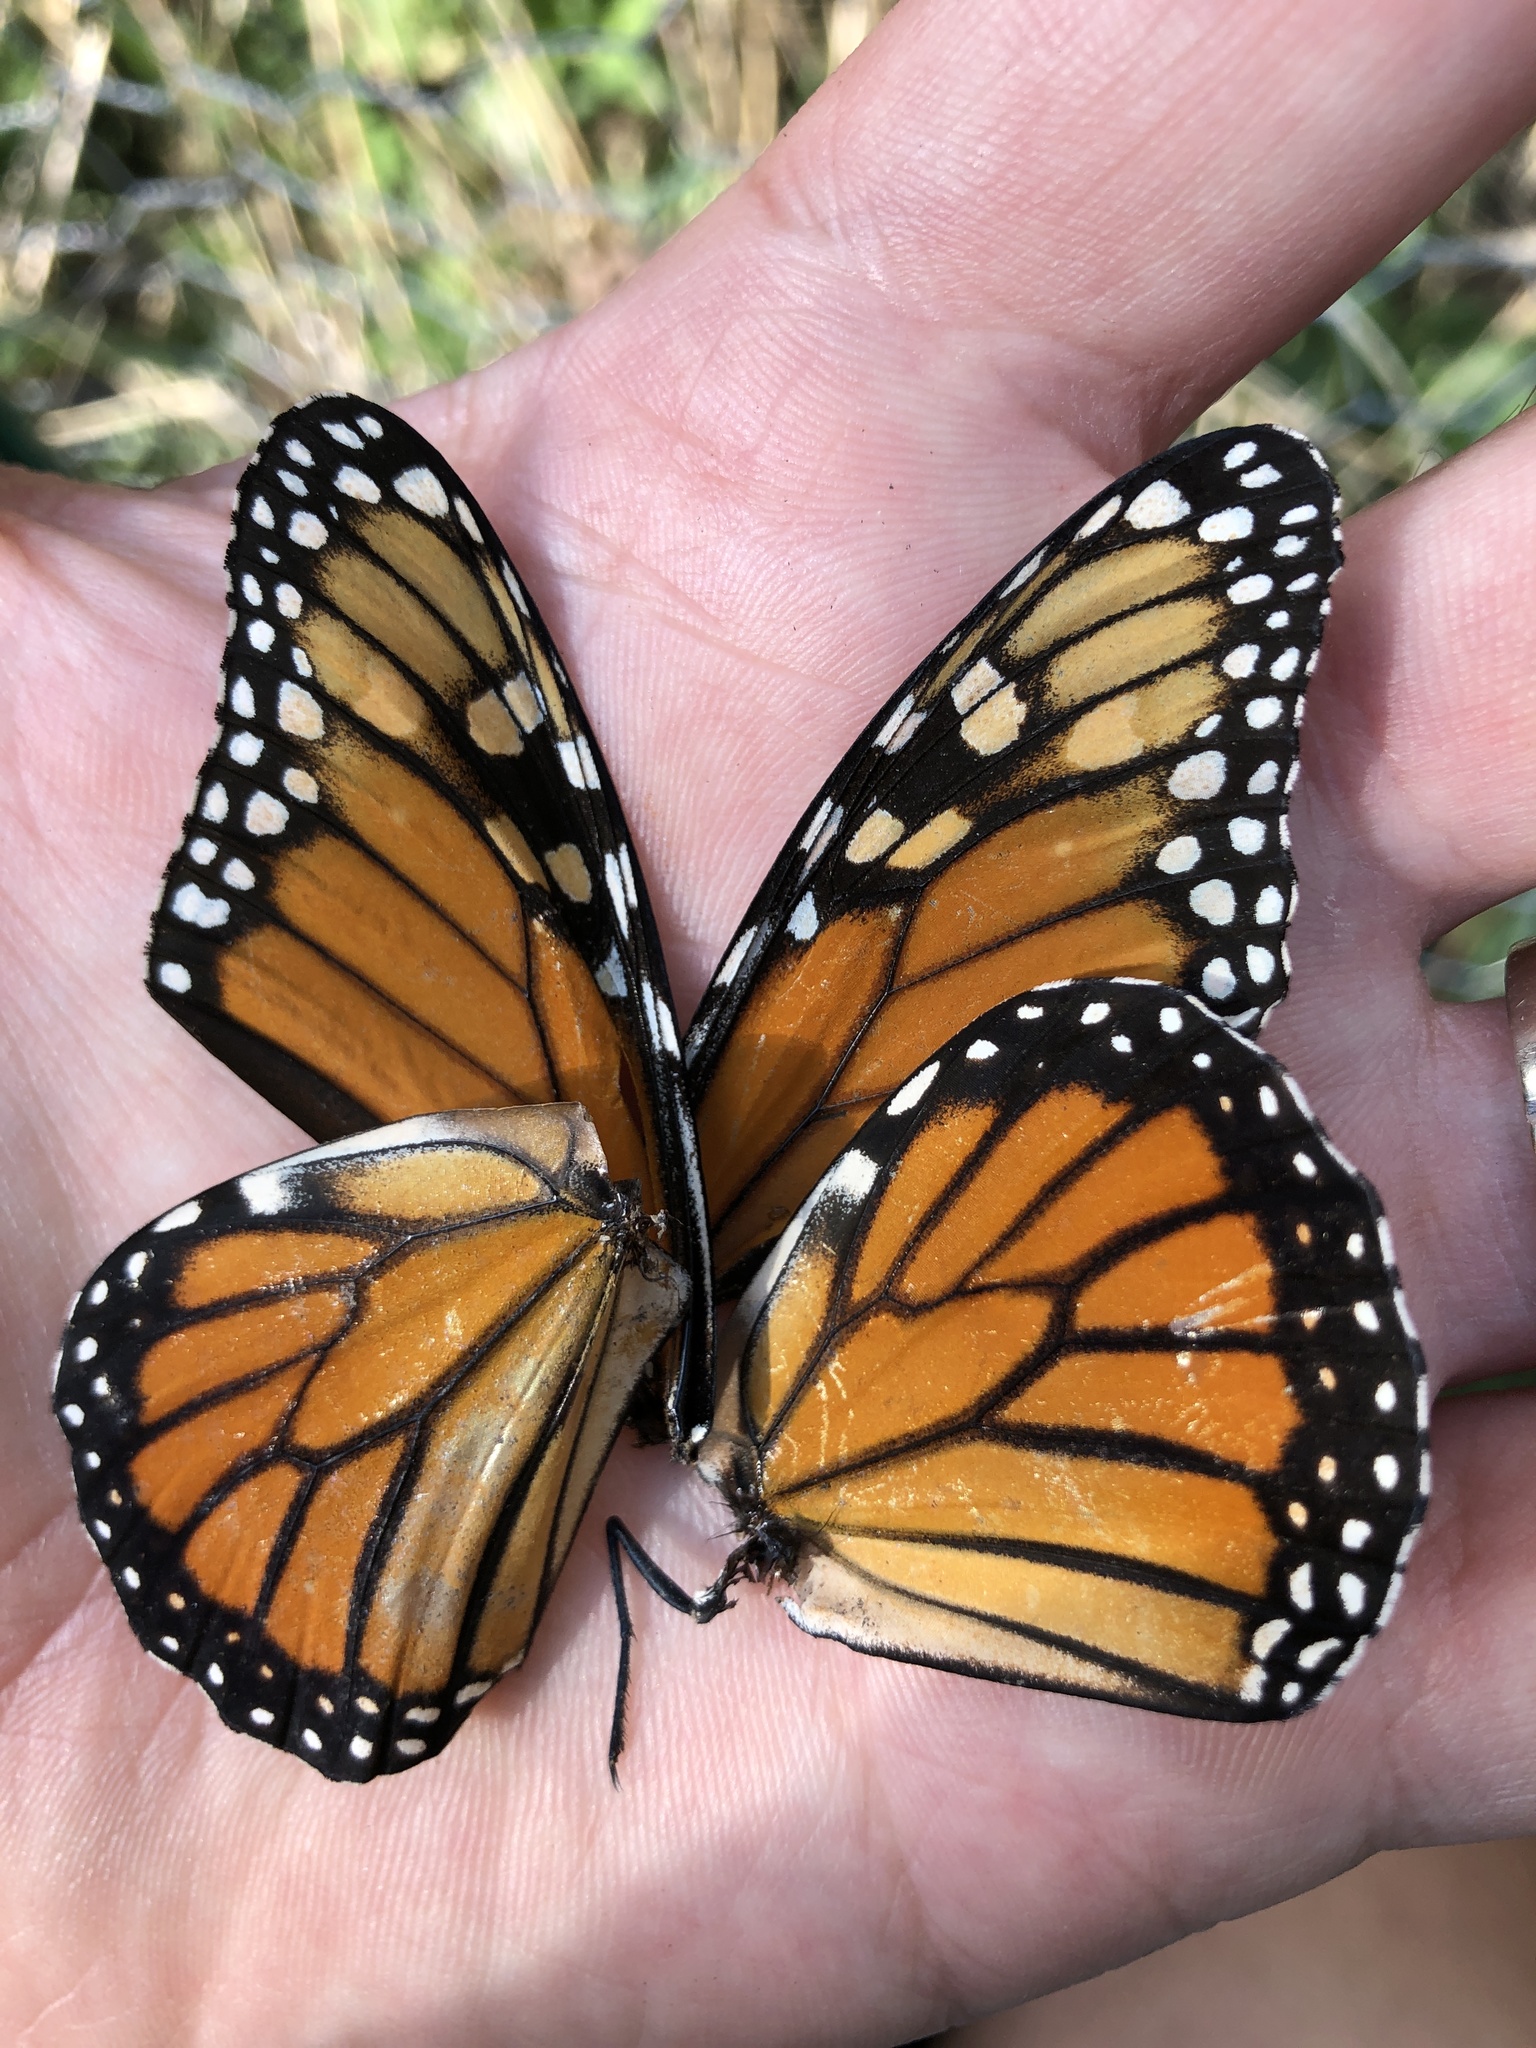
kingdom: Animalia
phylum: Arthropoda
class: Insecta
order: Lepidoptera
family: Nymphalidae
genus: Danaus
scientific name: Danaus plexippus
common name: Monarch
